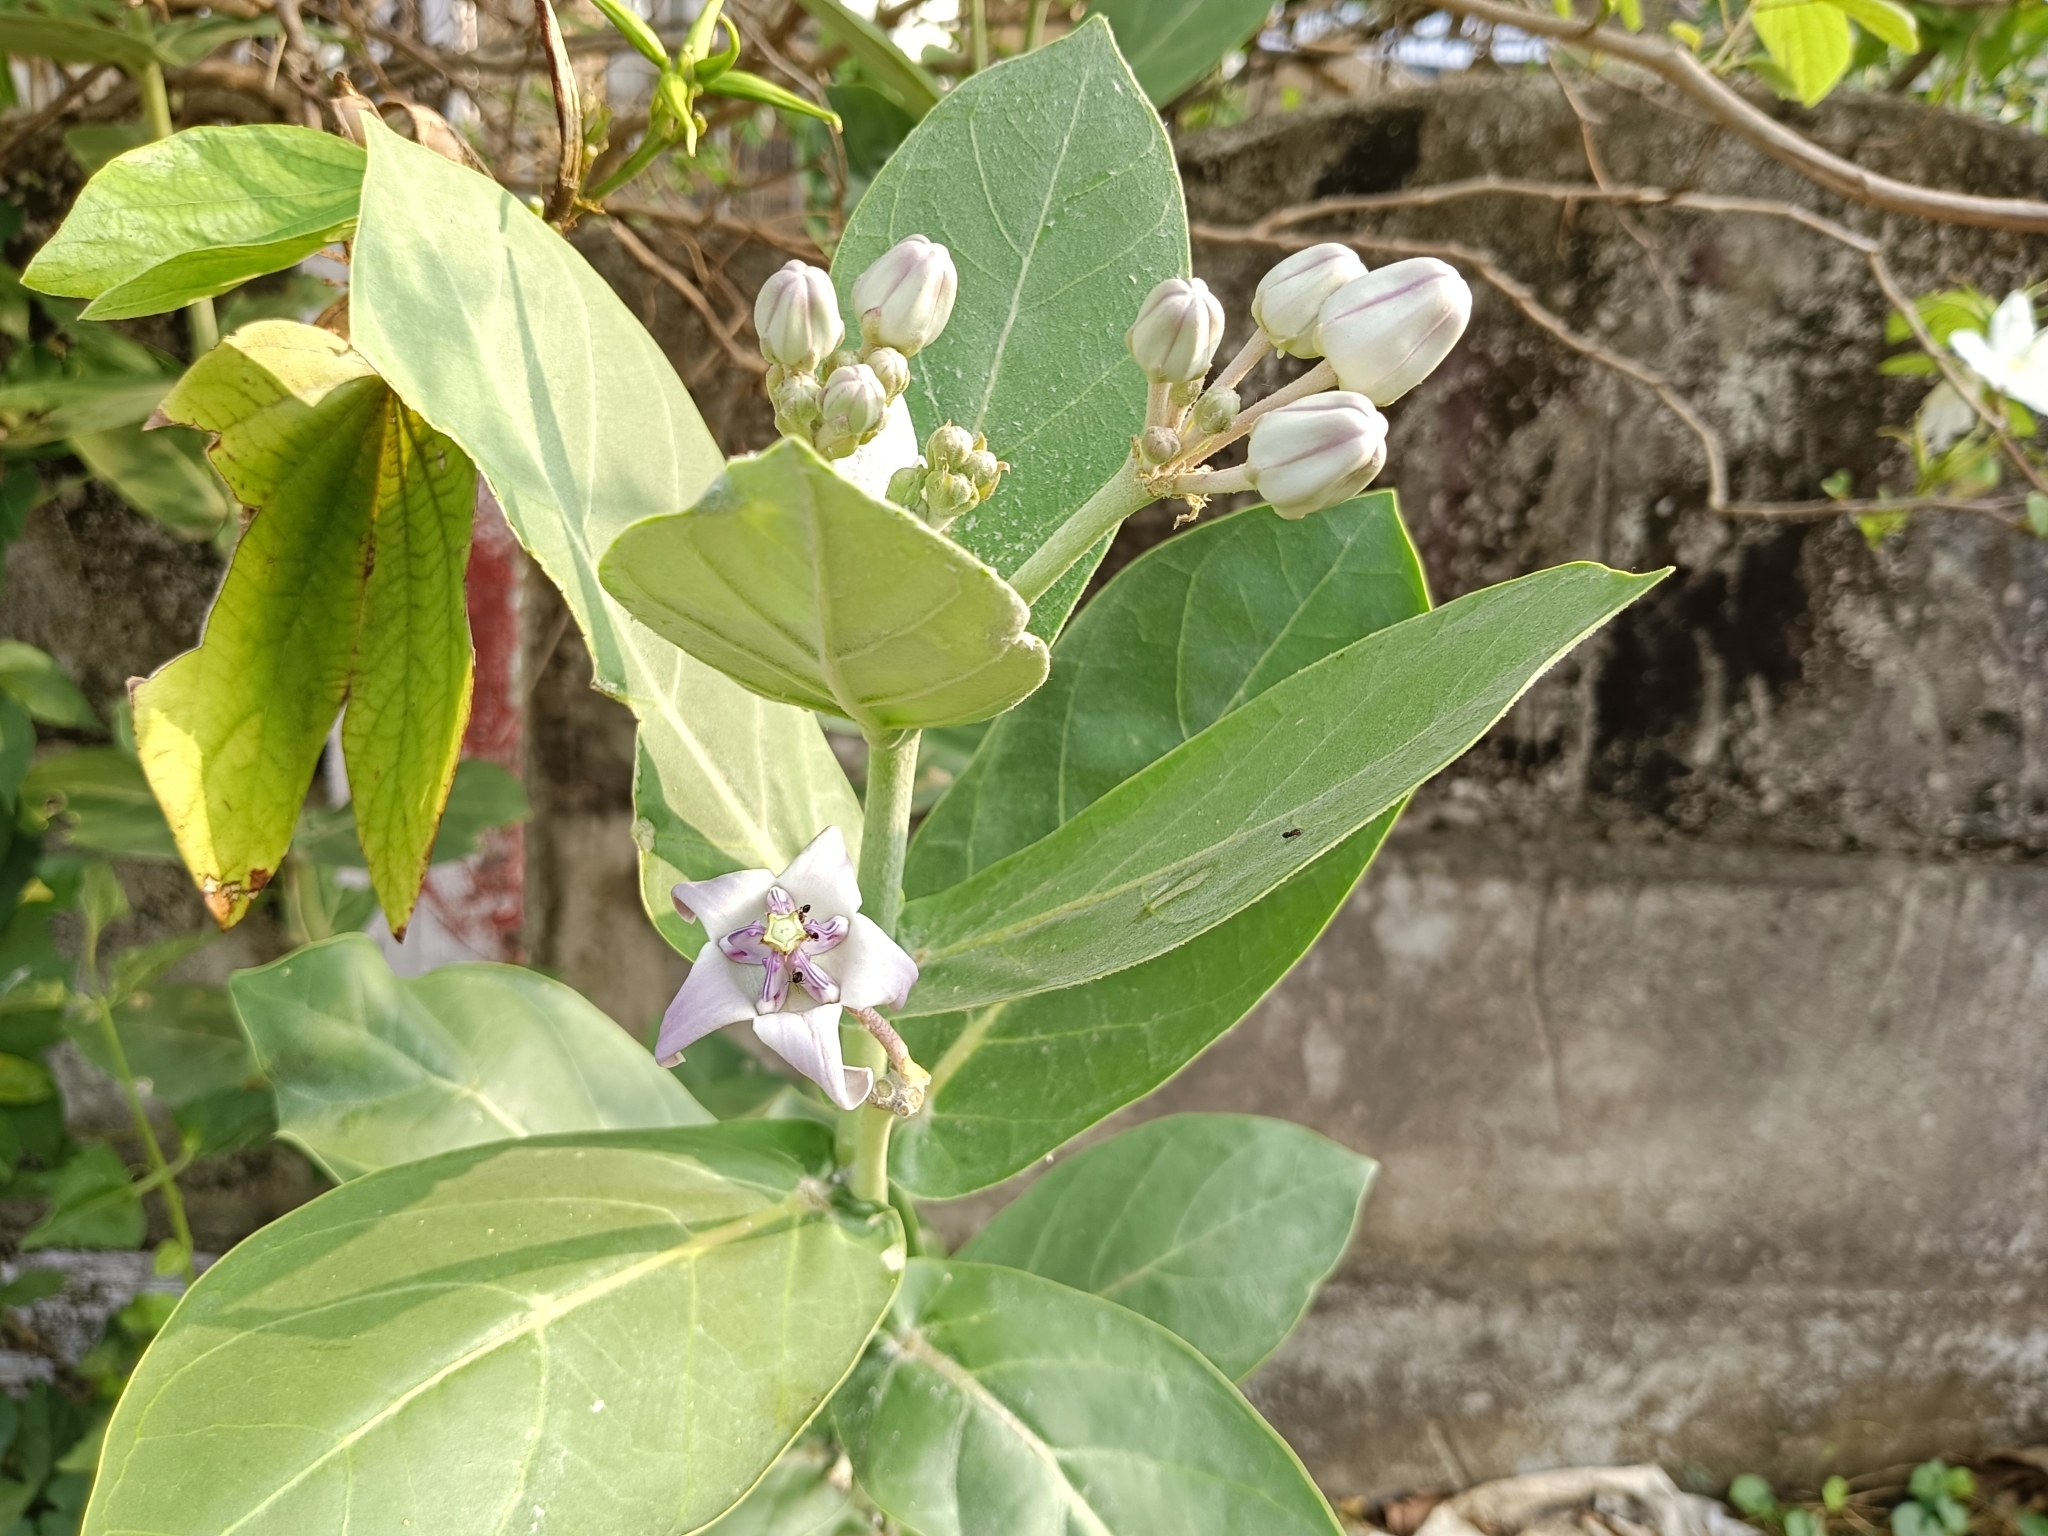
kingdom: Plantae
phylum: Tracheophyta
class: Magnoliopsida
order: Gentianales
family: Apocynaceae
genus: Calotropis
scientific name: Calotropis gigantea
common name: Crown flower
